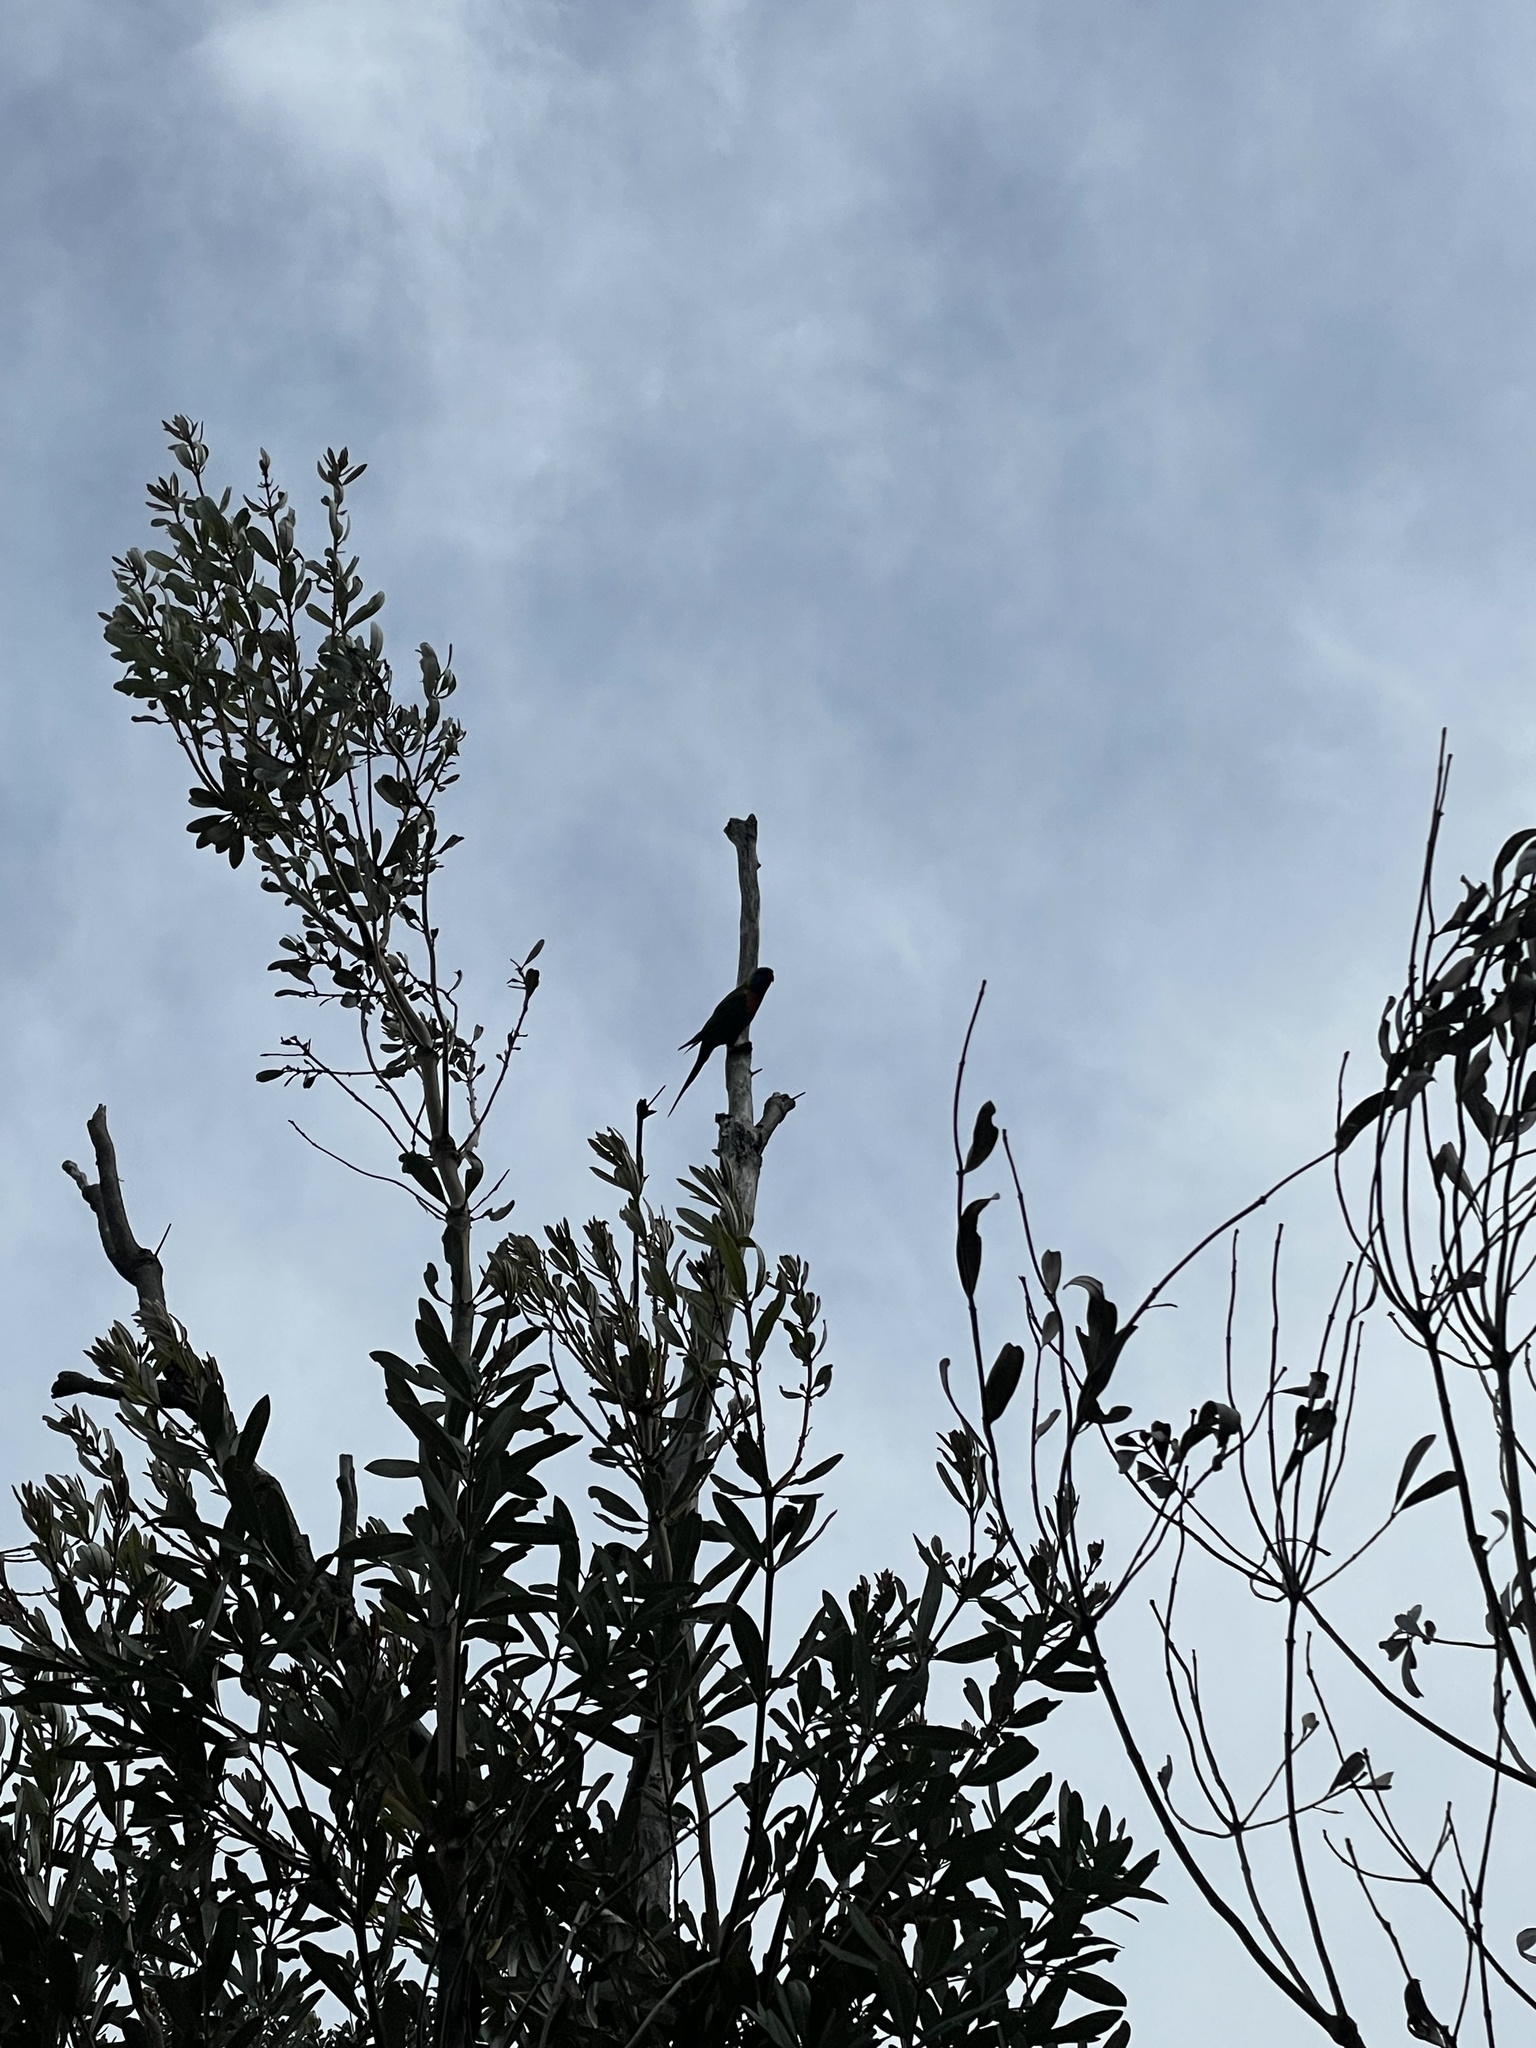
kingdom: Animalia
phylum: Chordata
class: Aves
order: Psittaciformes
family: Psittacidae
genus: Trichoglossus
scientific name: Trichoglossus haematodus
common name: Coconut lorikeet
